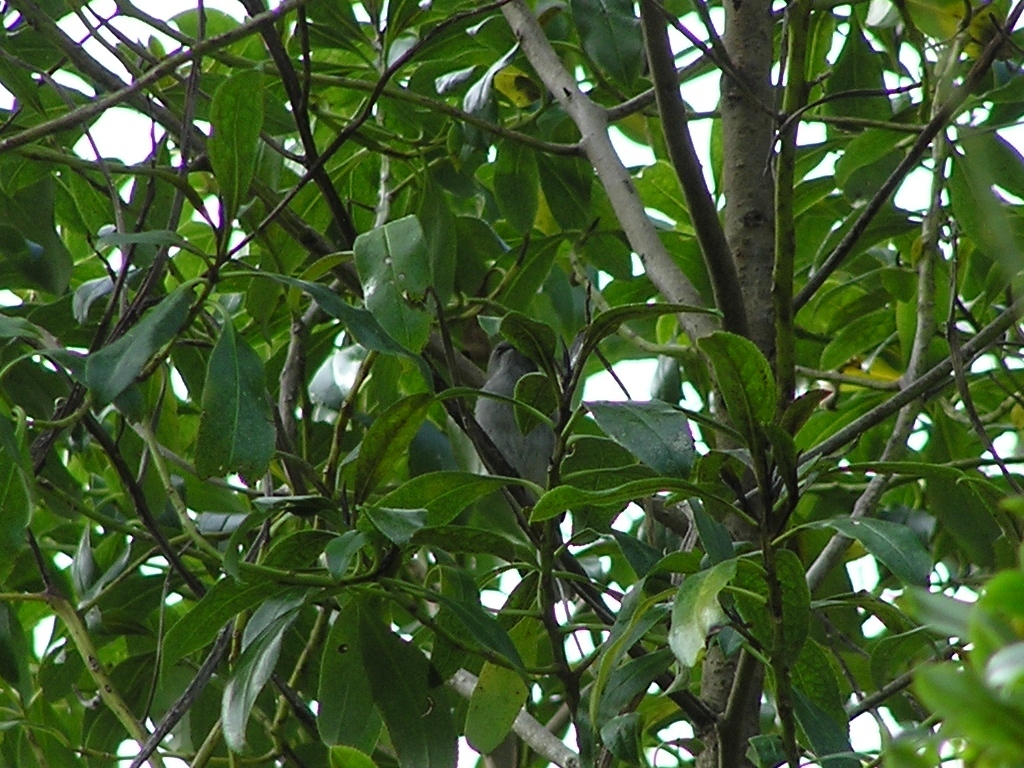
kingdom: Animalia
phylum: Chordata
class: Aves
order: Passeriformes
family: Acanthizidae
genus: Gerygone
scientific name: Gerygone igata
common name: Grey gerygone
